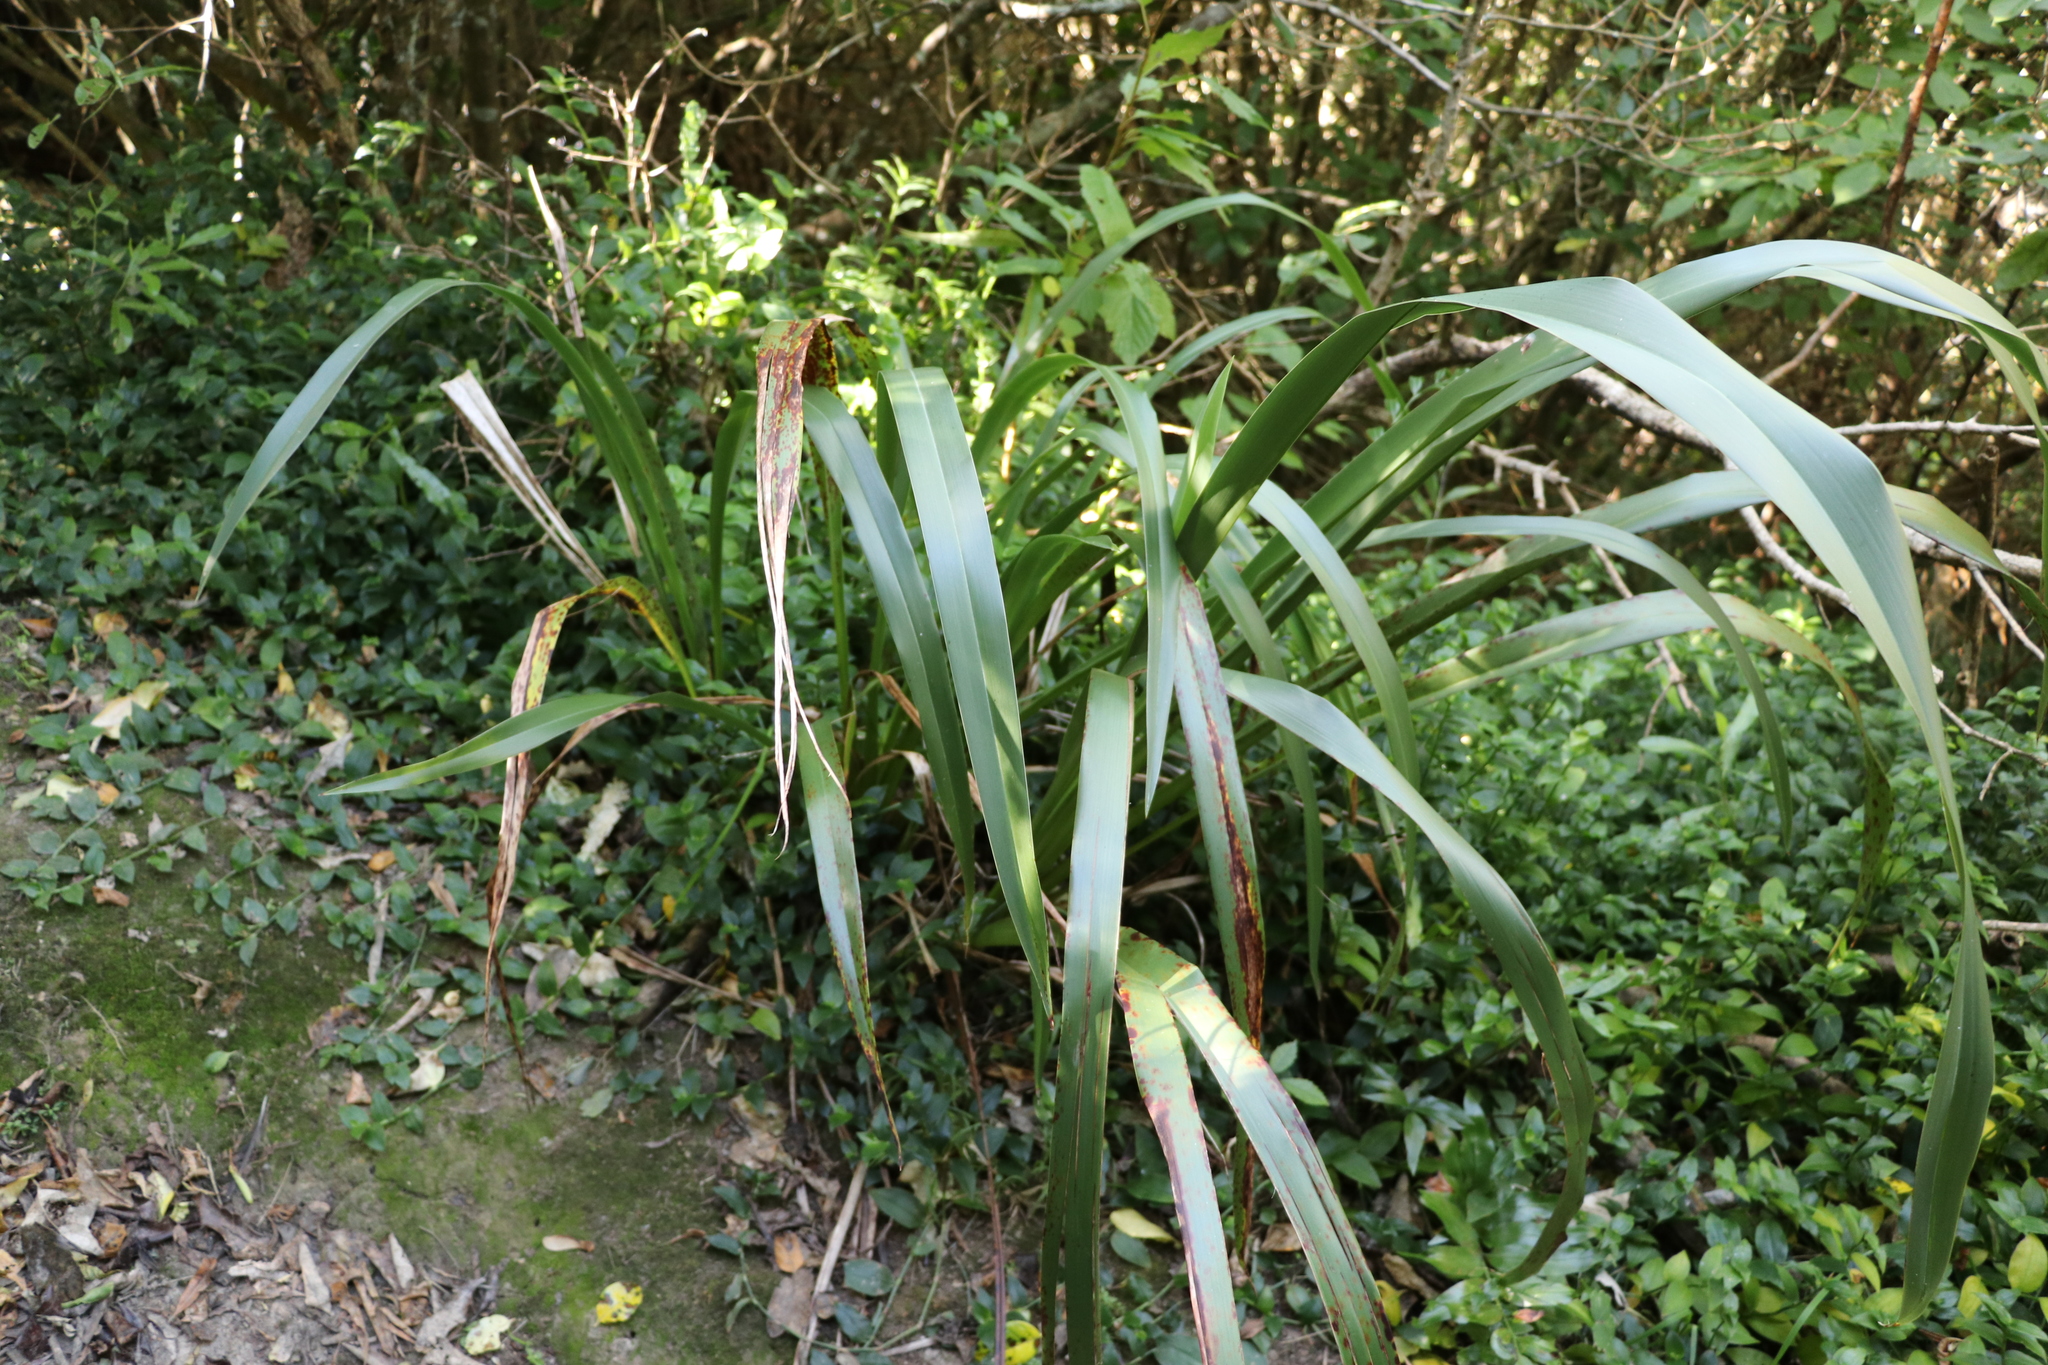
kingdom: Plantae
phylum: Tracheophyta
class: Liliopsida
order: Asparagales
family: Asphodelaceae
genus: Phormium
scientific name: Phormium colensoi
